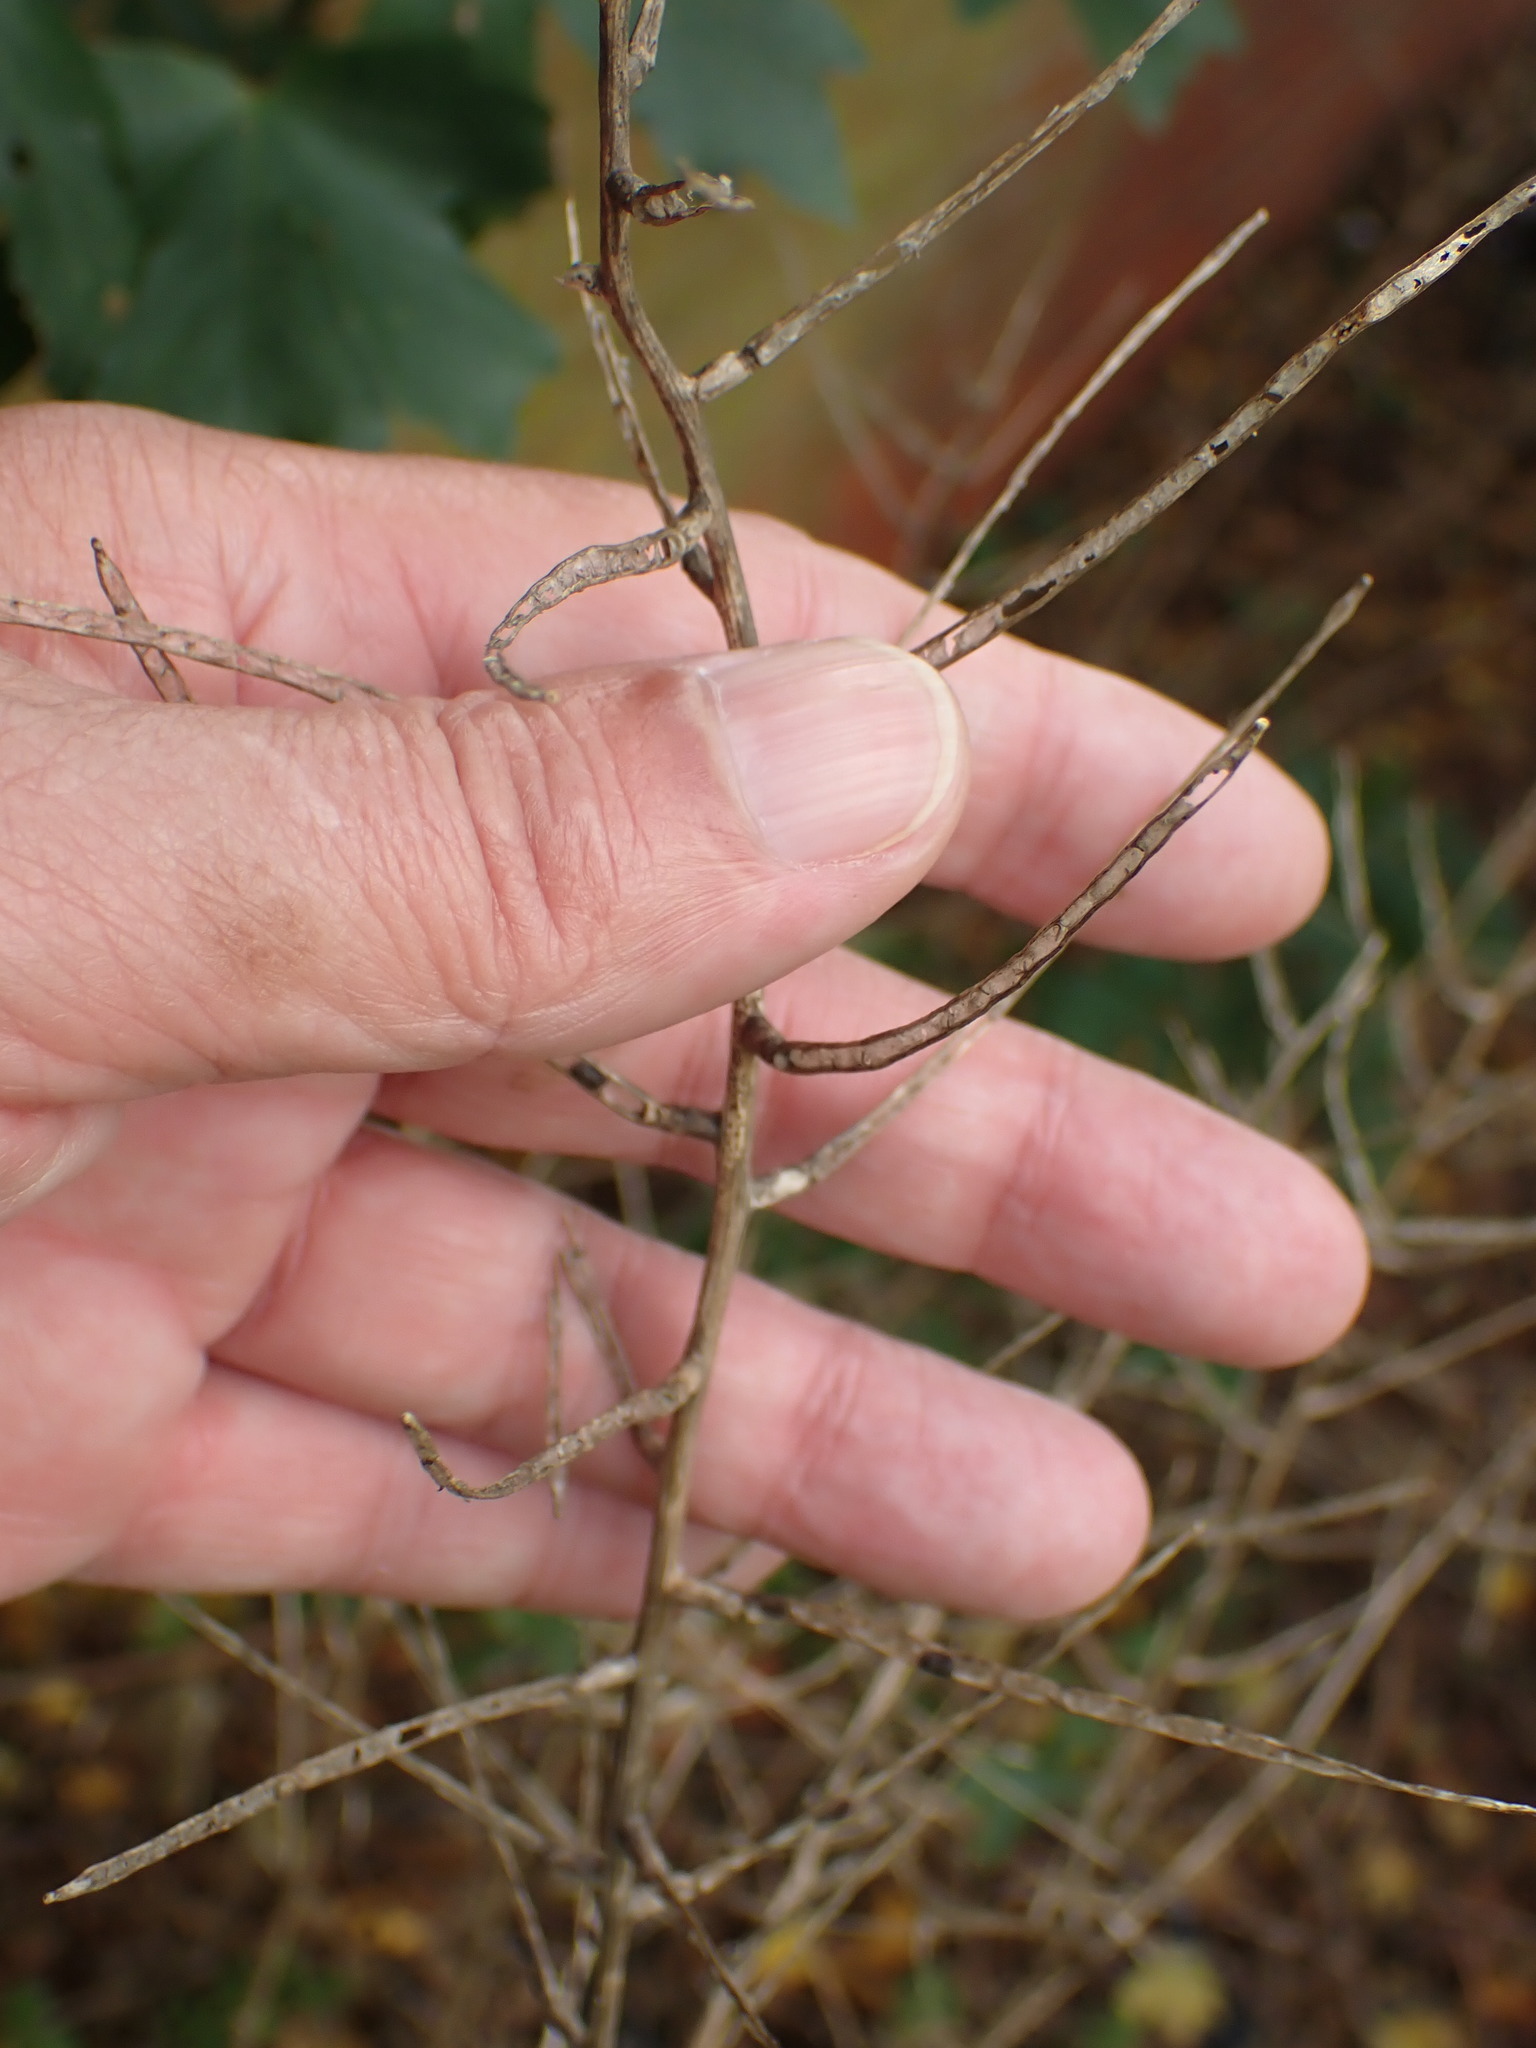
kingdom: Plantae
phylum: Tracheophyta
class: Magnoliopsida
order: Brassicales
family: Brassicaceae
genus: Alliaria
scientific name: Alliaria petiolata
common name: Garlic mustard
